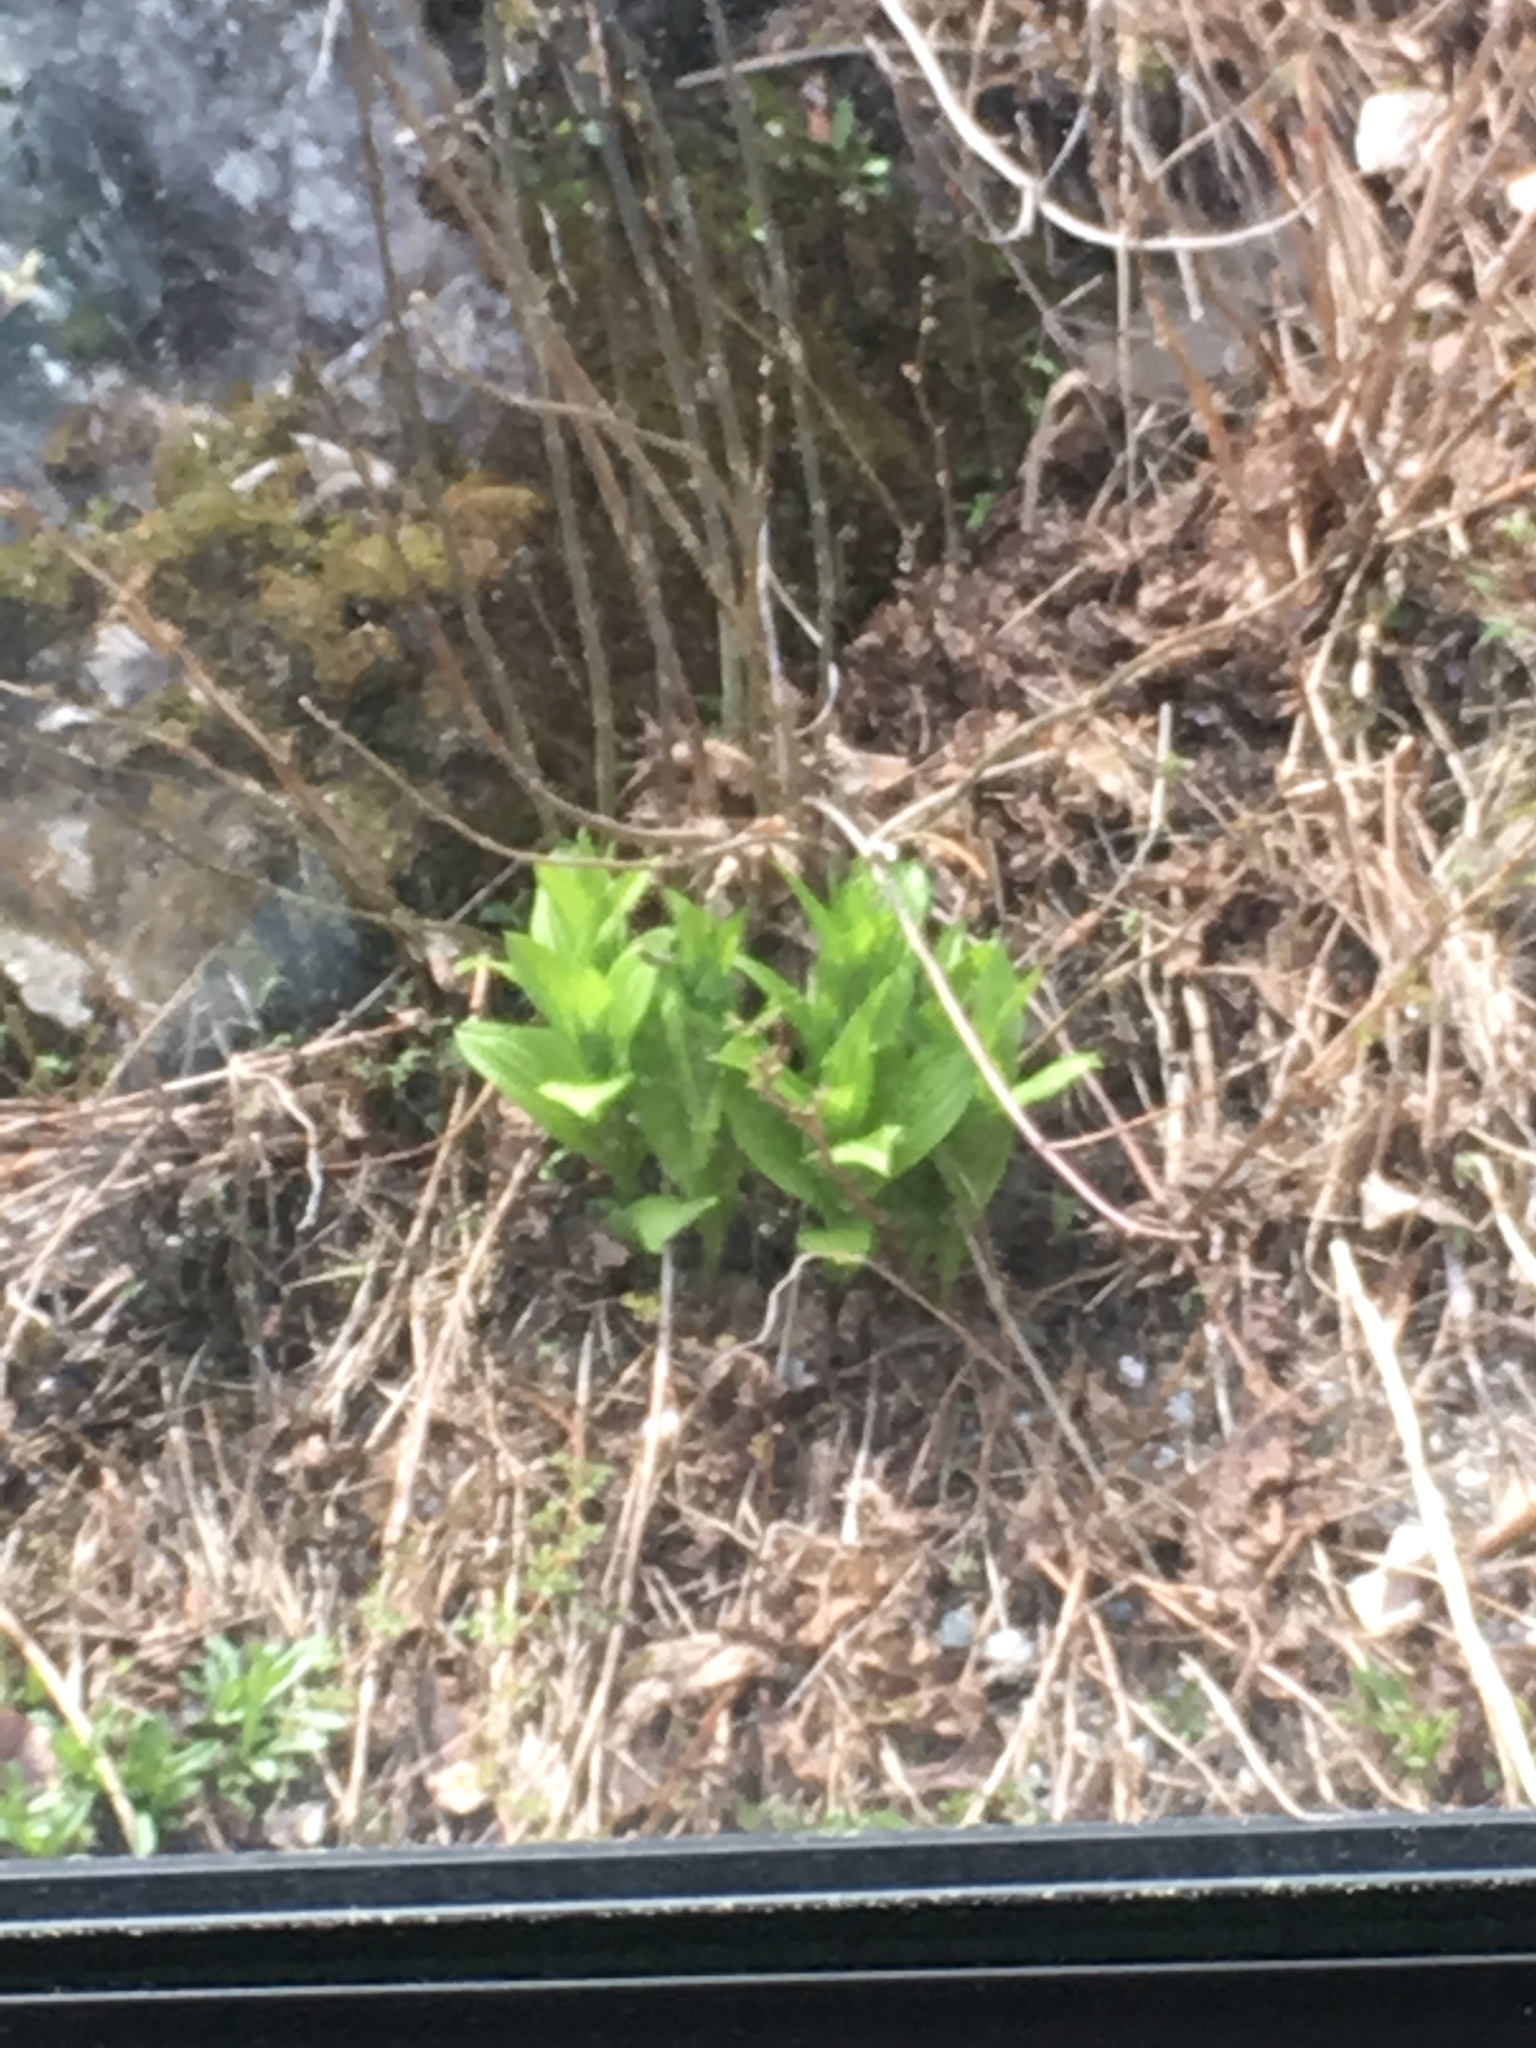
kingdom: Plantae
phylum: Tracheophyta
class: Liliopsida
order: Liliales
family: Melanthiaceae
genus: Veratrum
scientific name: Veratrum viride
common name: American false hellebore
